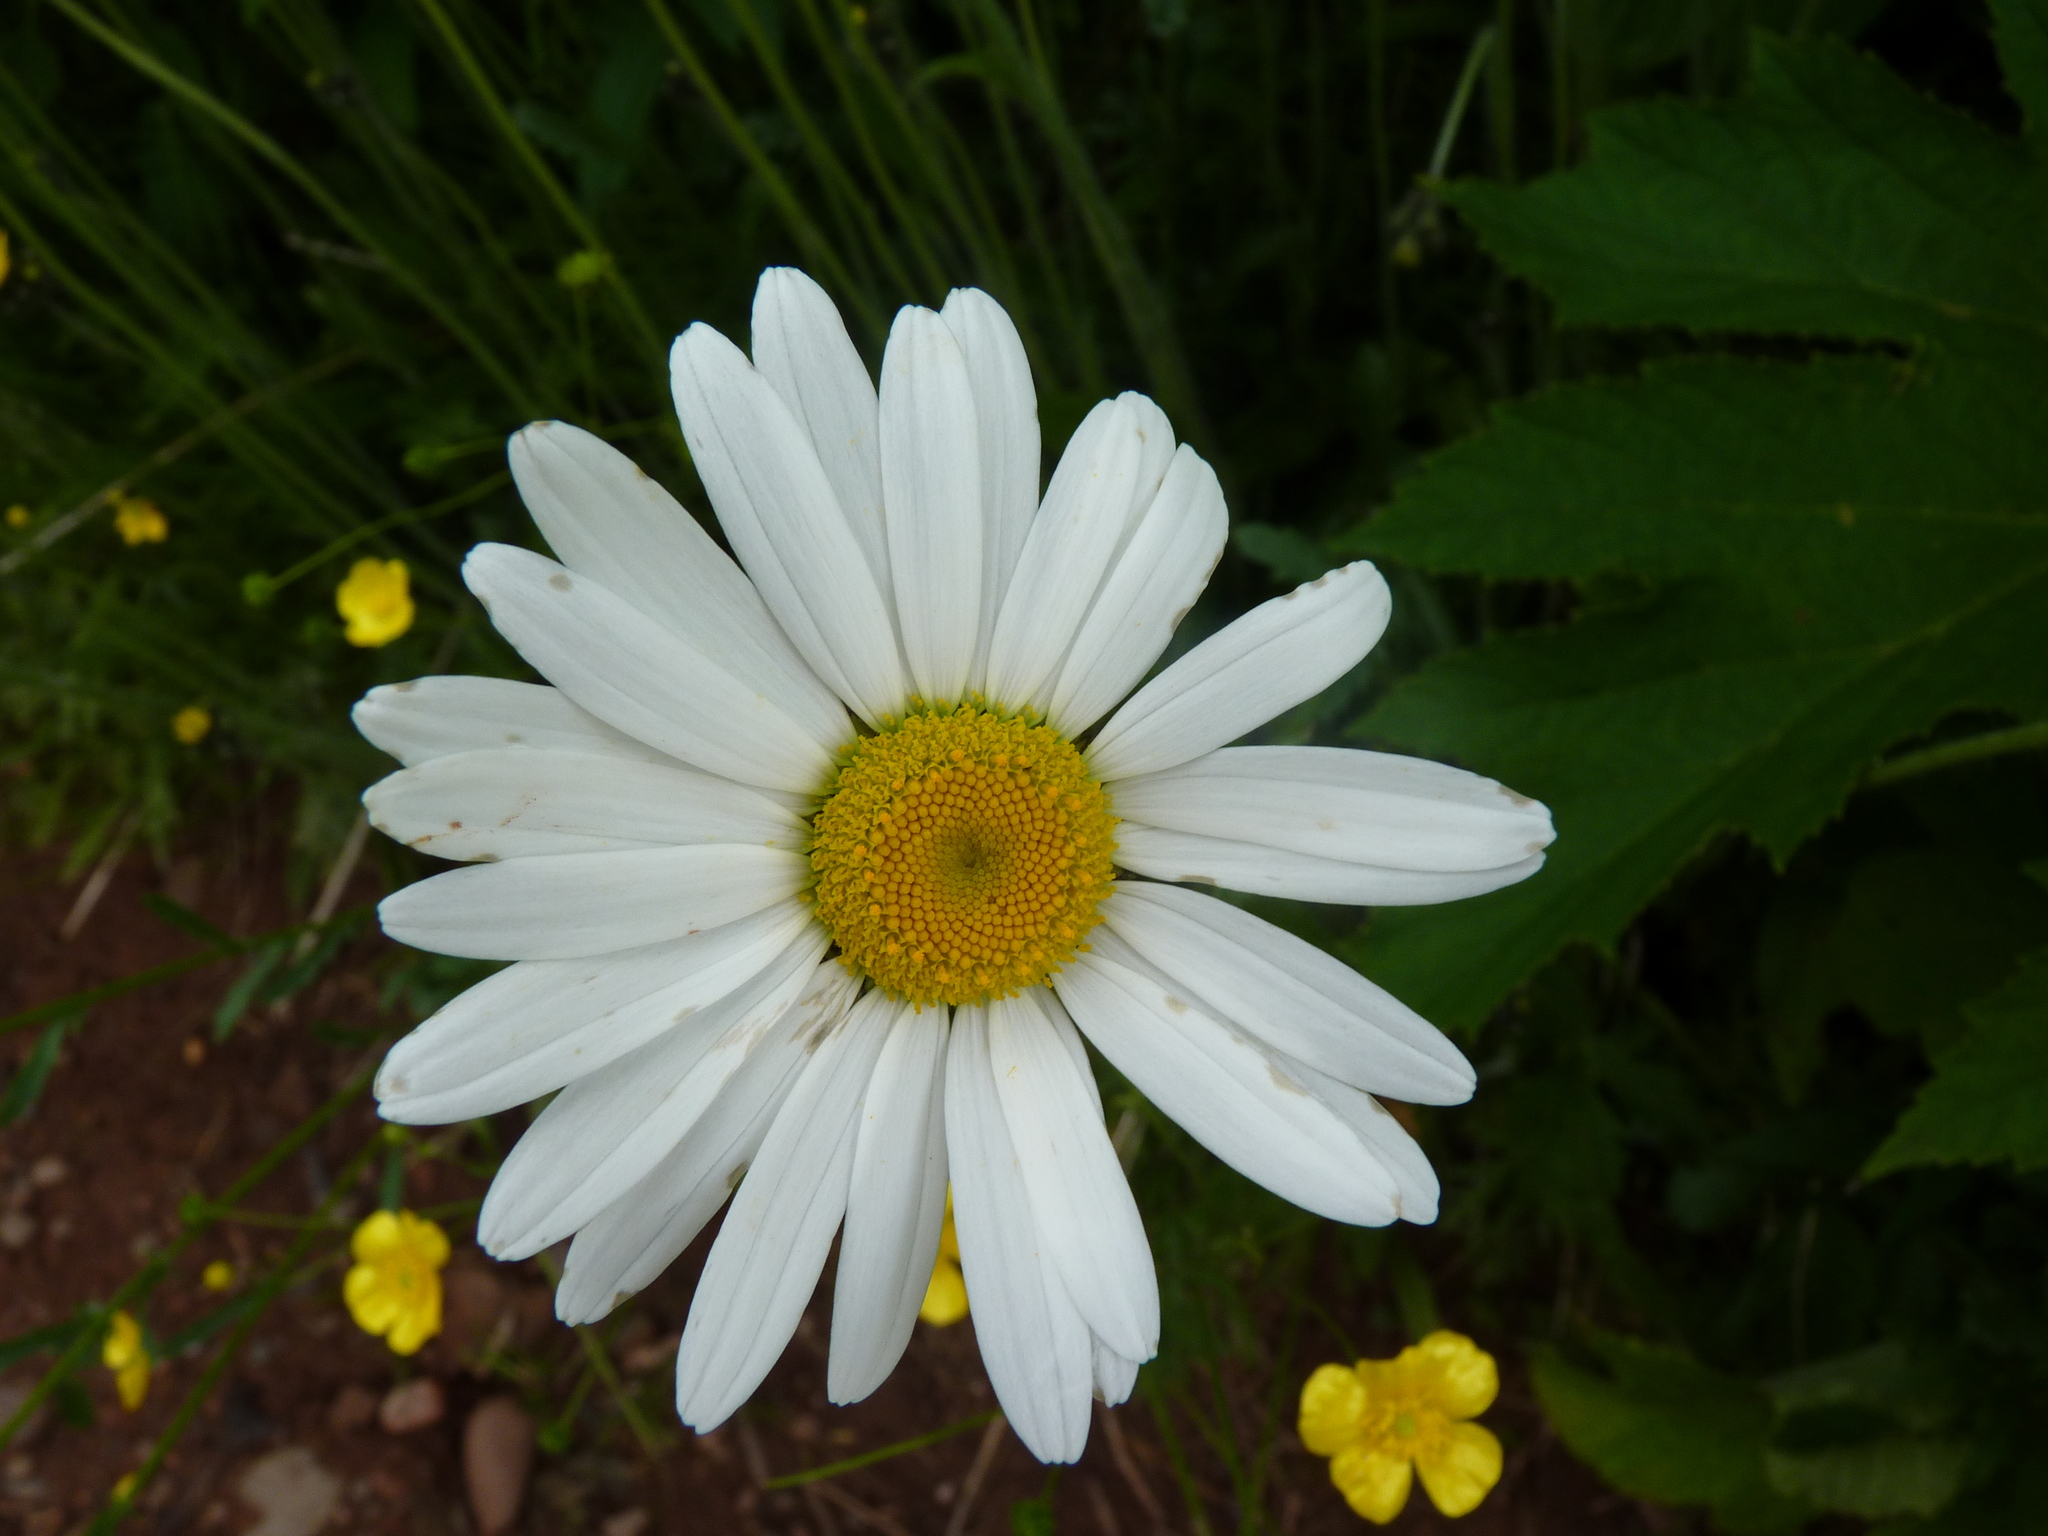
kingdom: Plantae
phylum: Tracheophyta
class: Magnoliopsida
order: Asterales
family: Asteraceae
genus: Leucanthemum
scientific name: Leucanthemum vulgare
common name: Oxeye daisy
